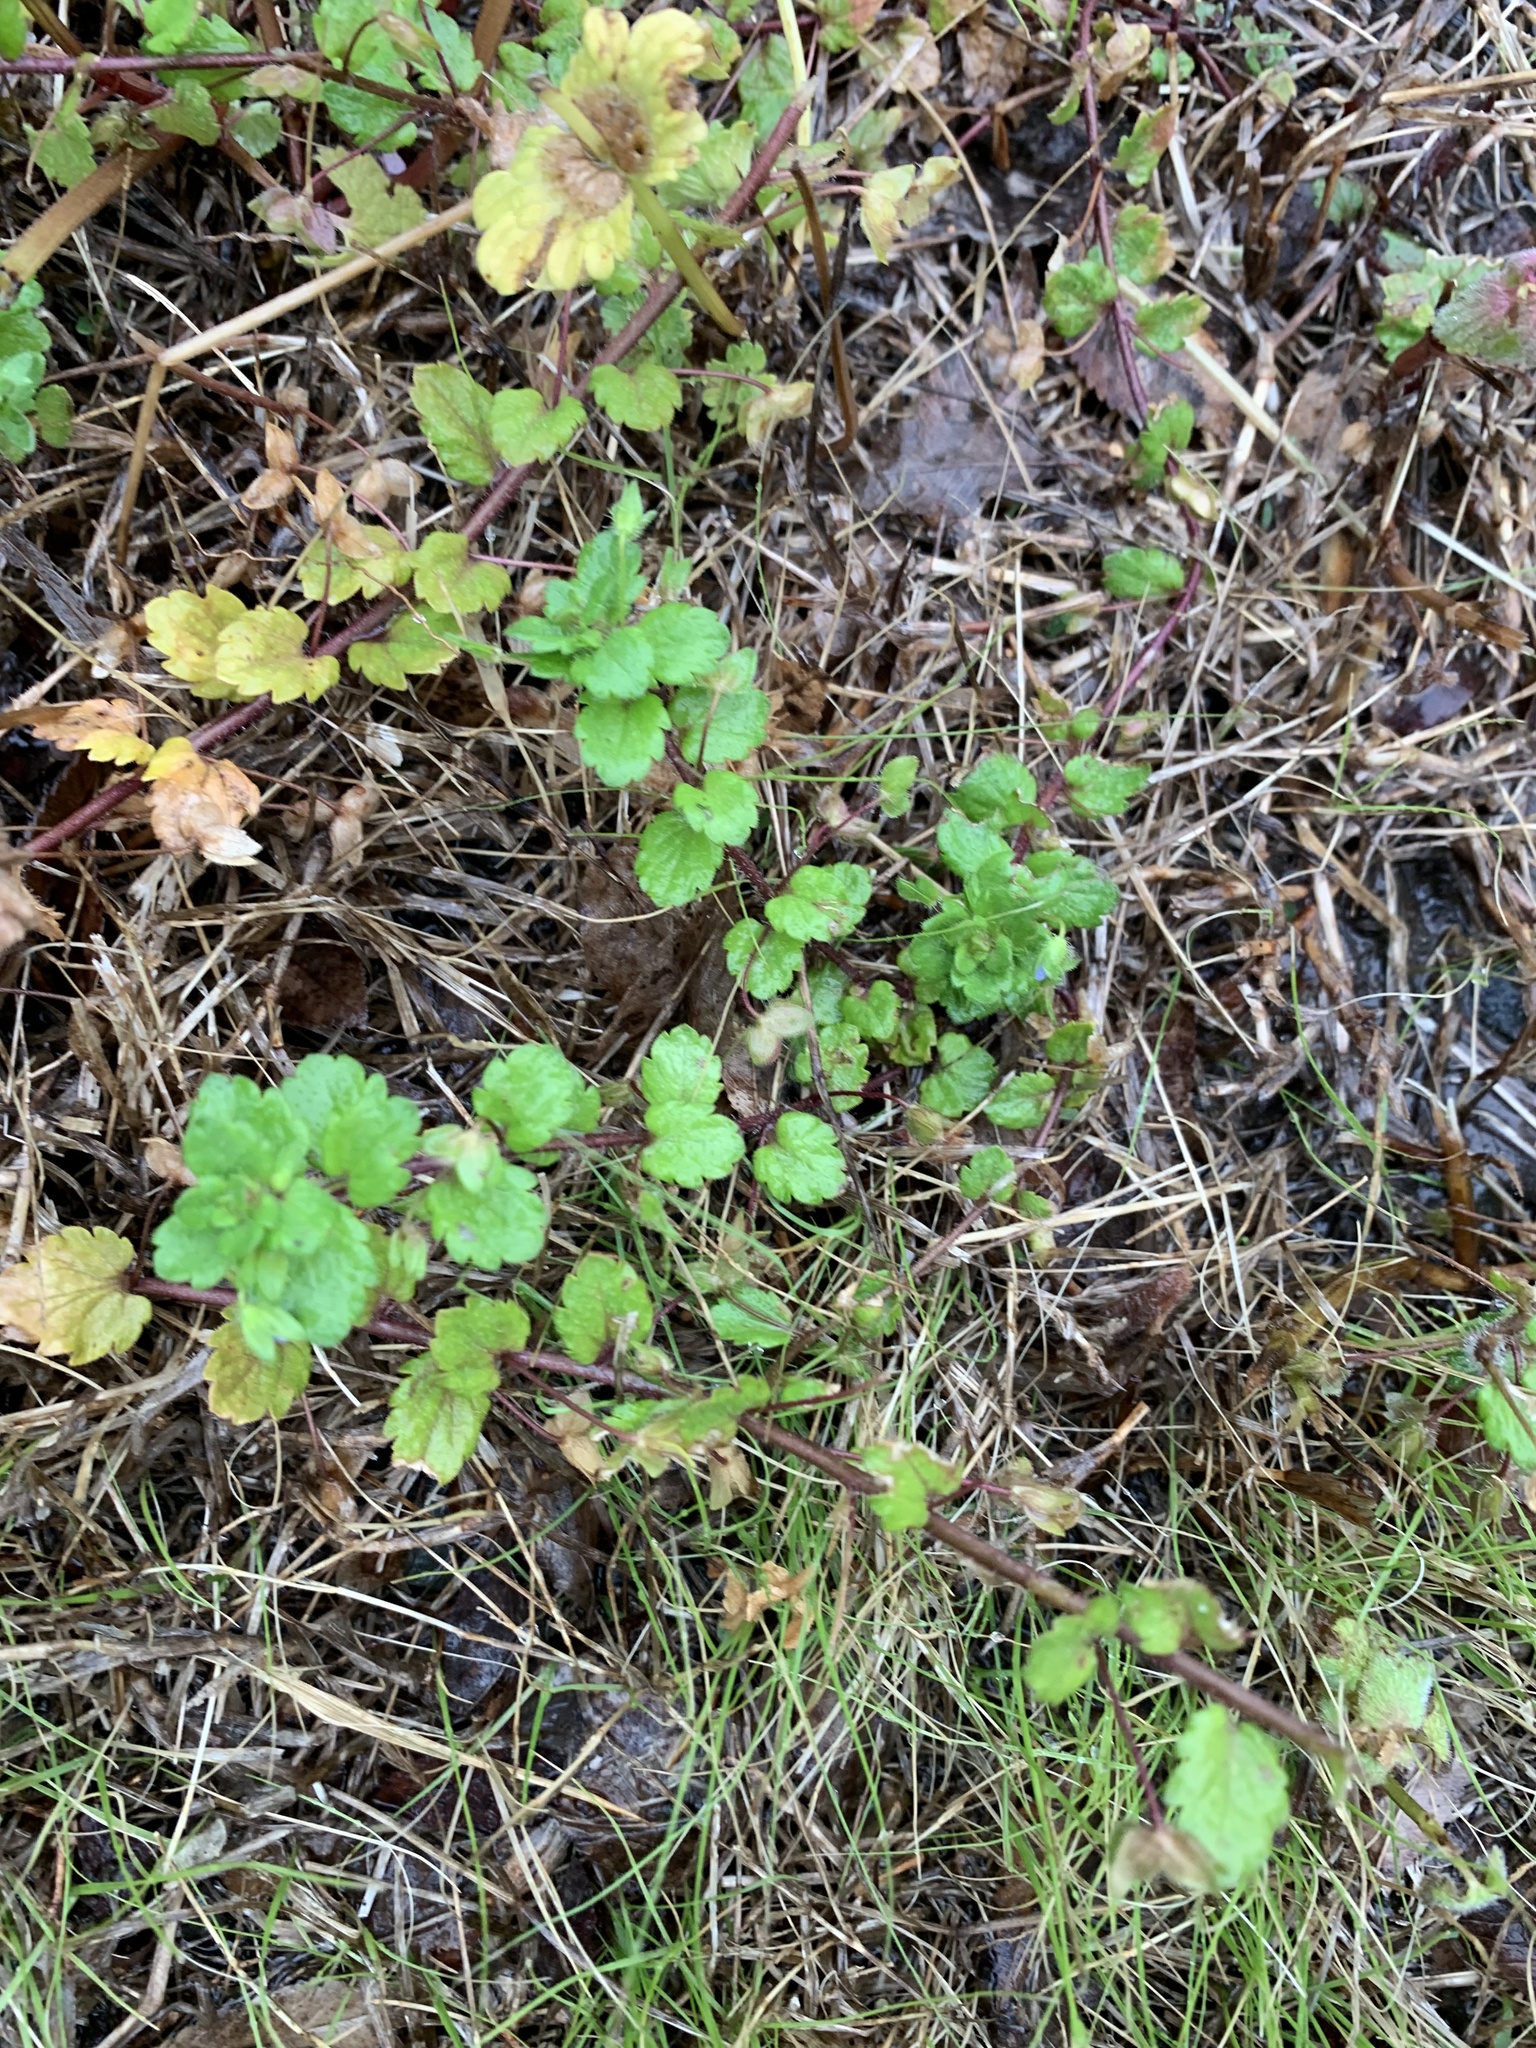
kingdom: Plantae
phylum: Tracheophyta
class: Magnoliopsida
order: Lamiales
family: Plantaginaceae
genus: Veronica
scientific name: Veronica persica
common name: Common field-speedwell
